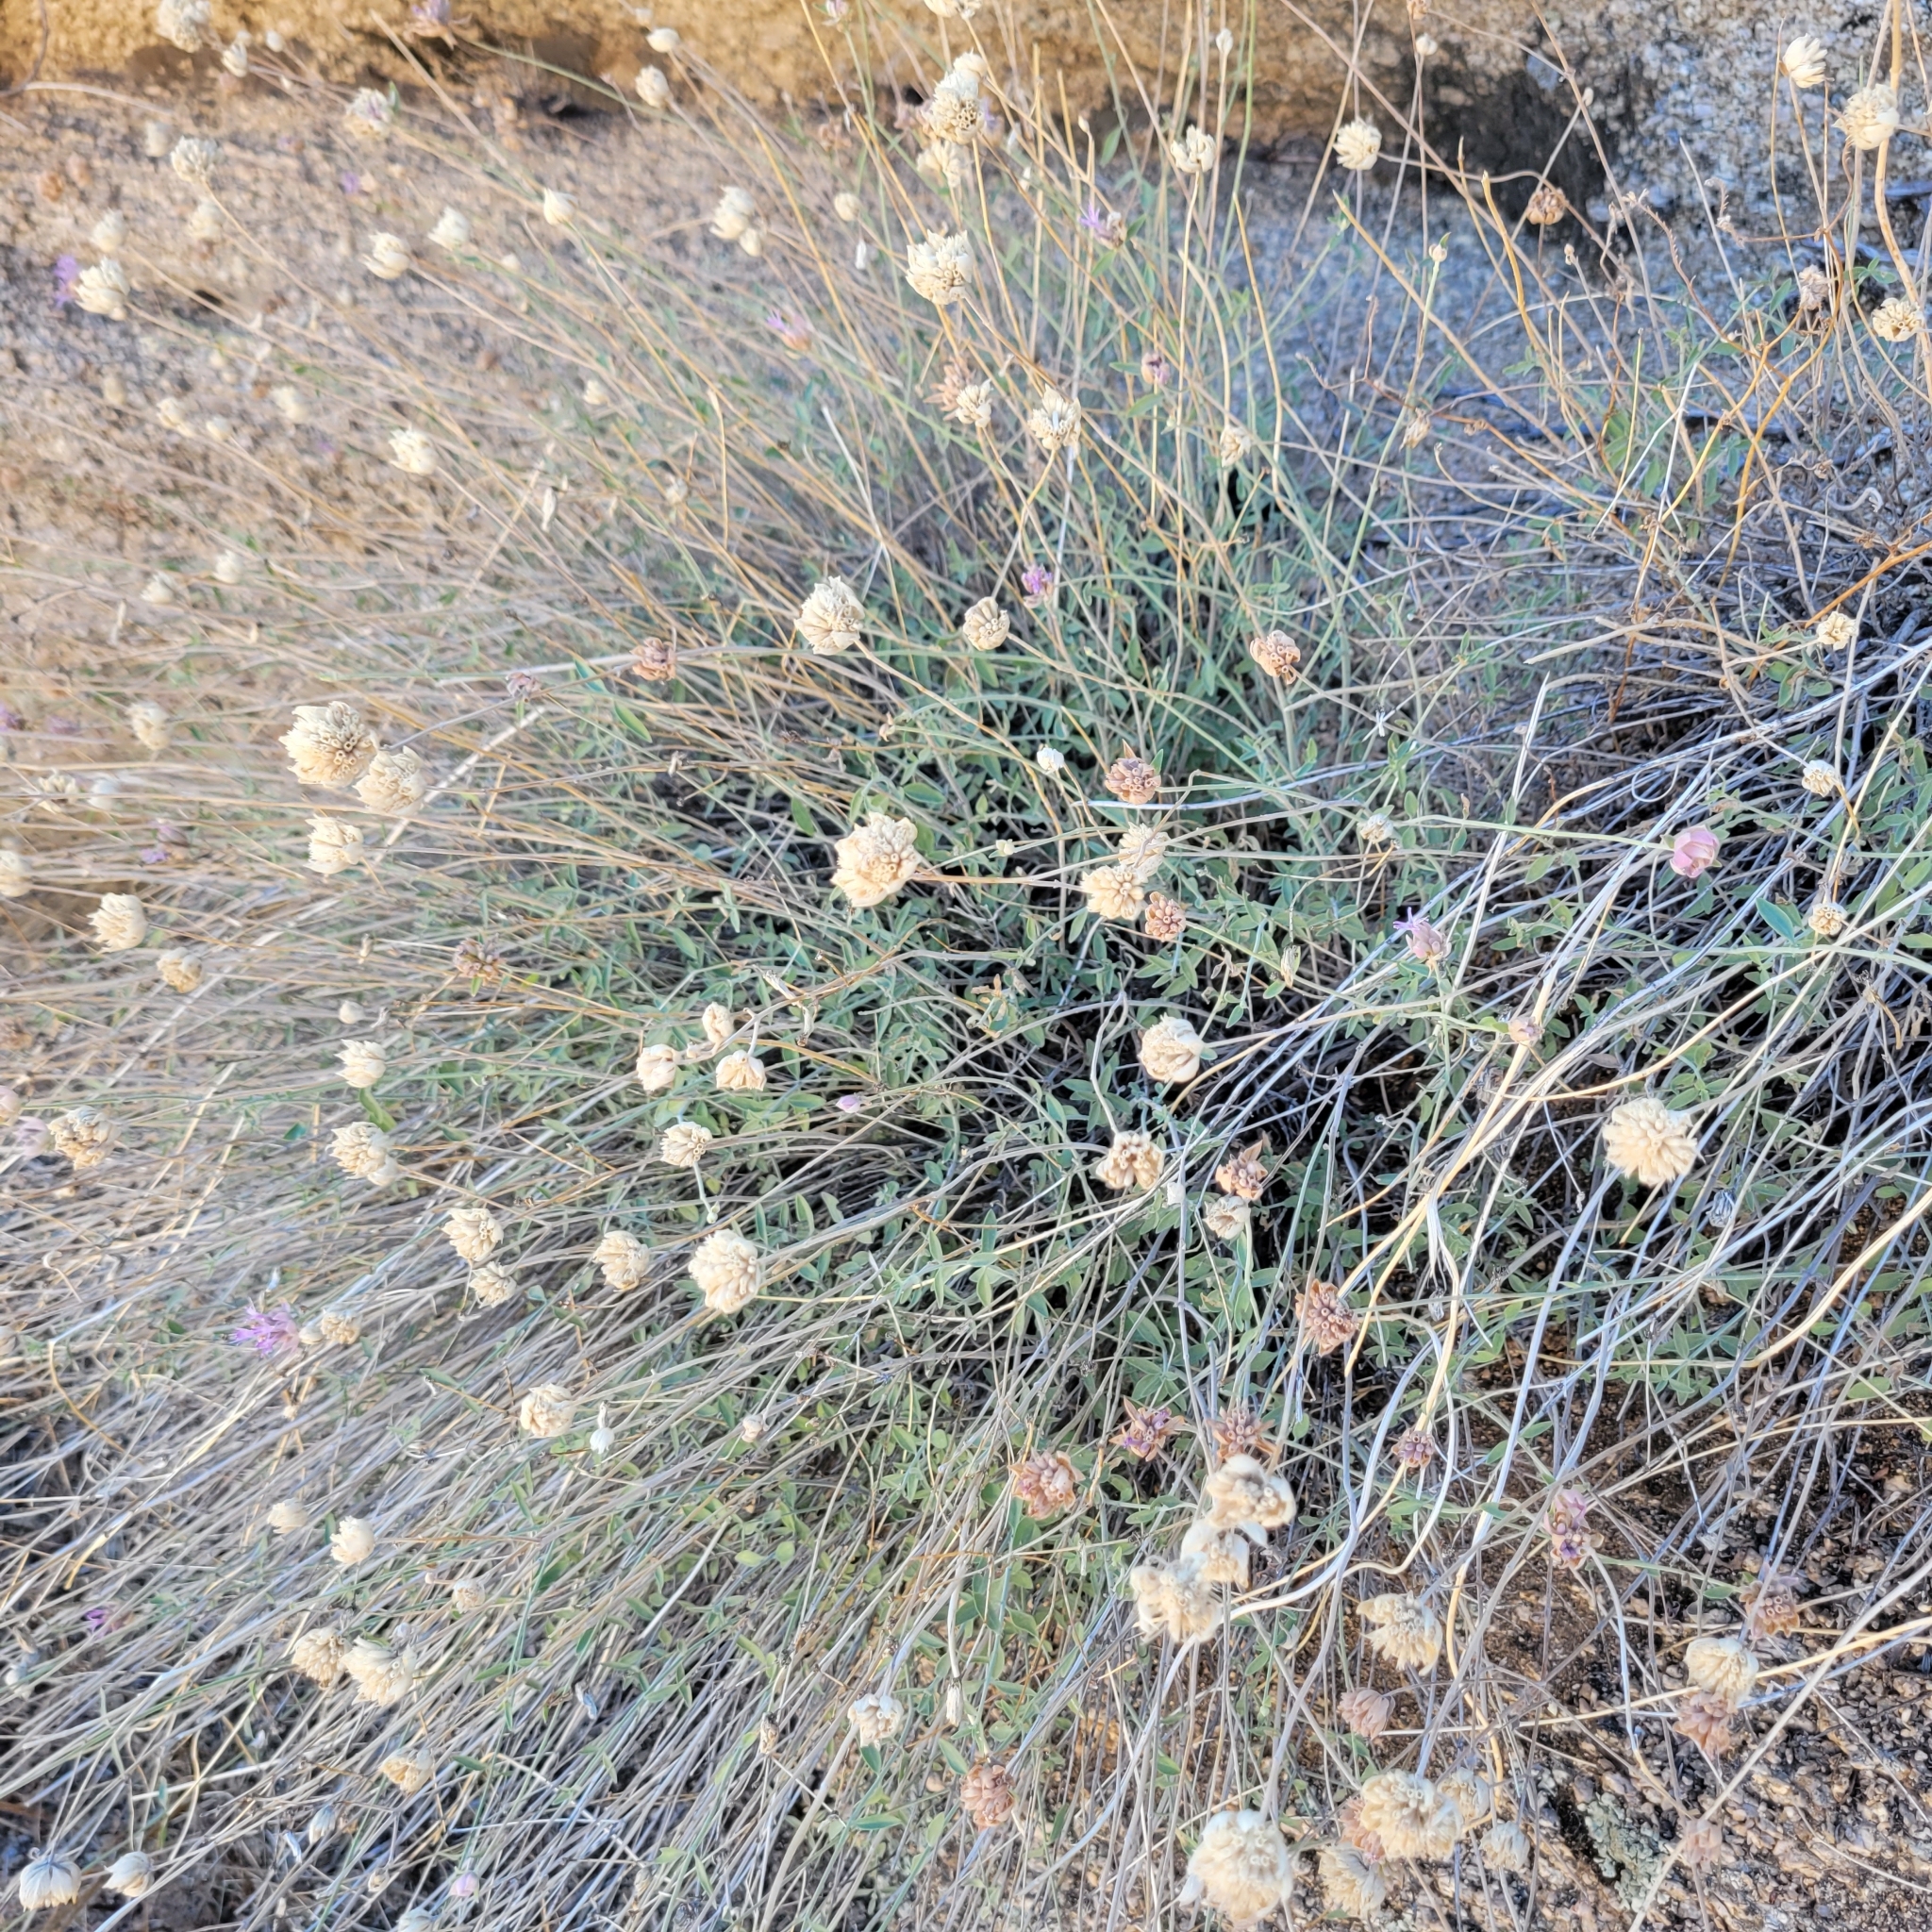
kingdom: Plantae
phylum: Tracheophyta
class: Magnoliopsida
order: Lamiales
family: Lamiaceae
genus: Monardella
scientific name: Monardella linoides
